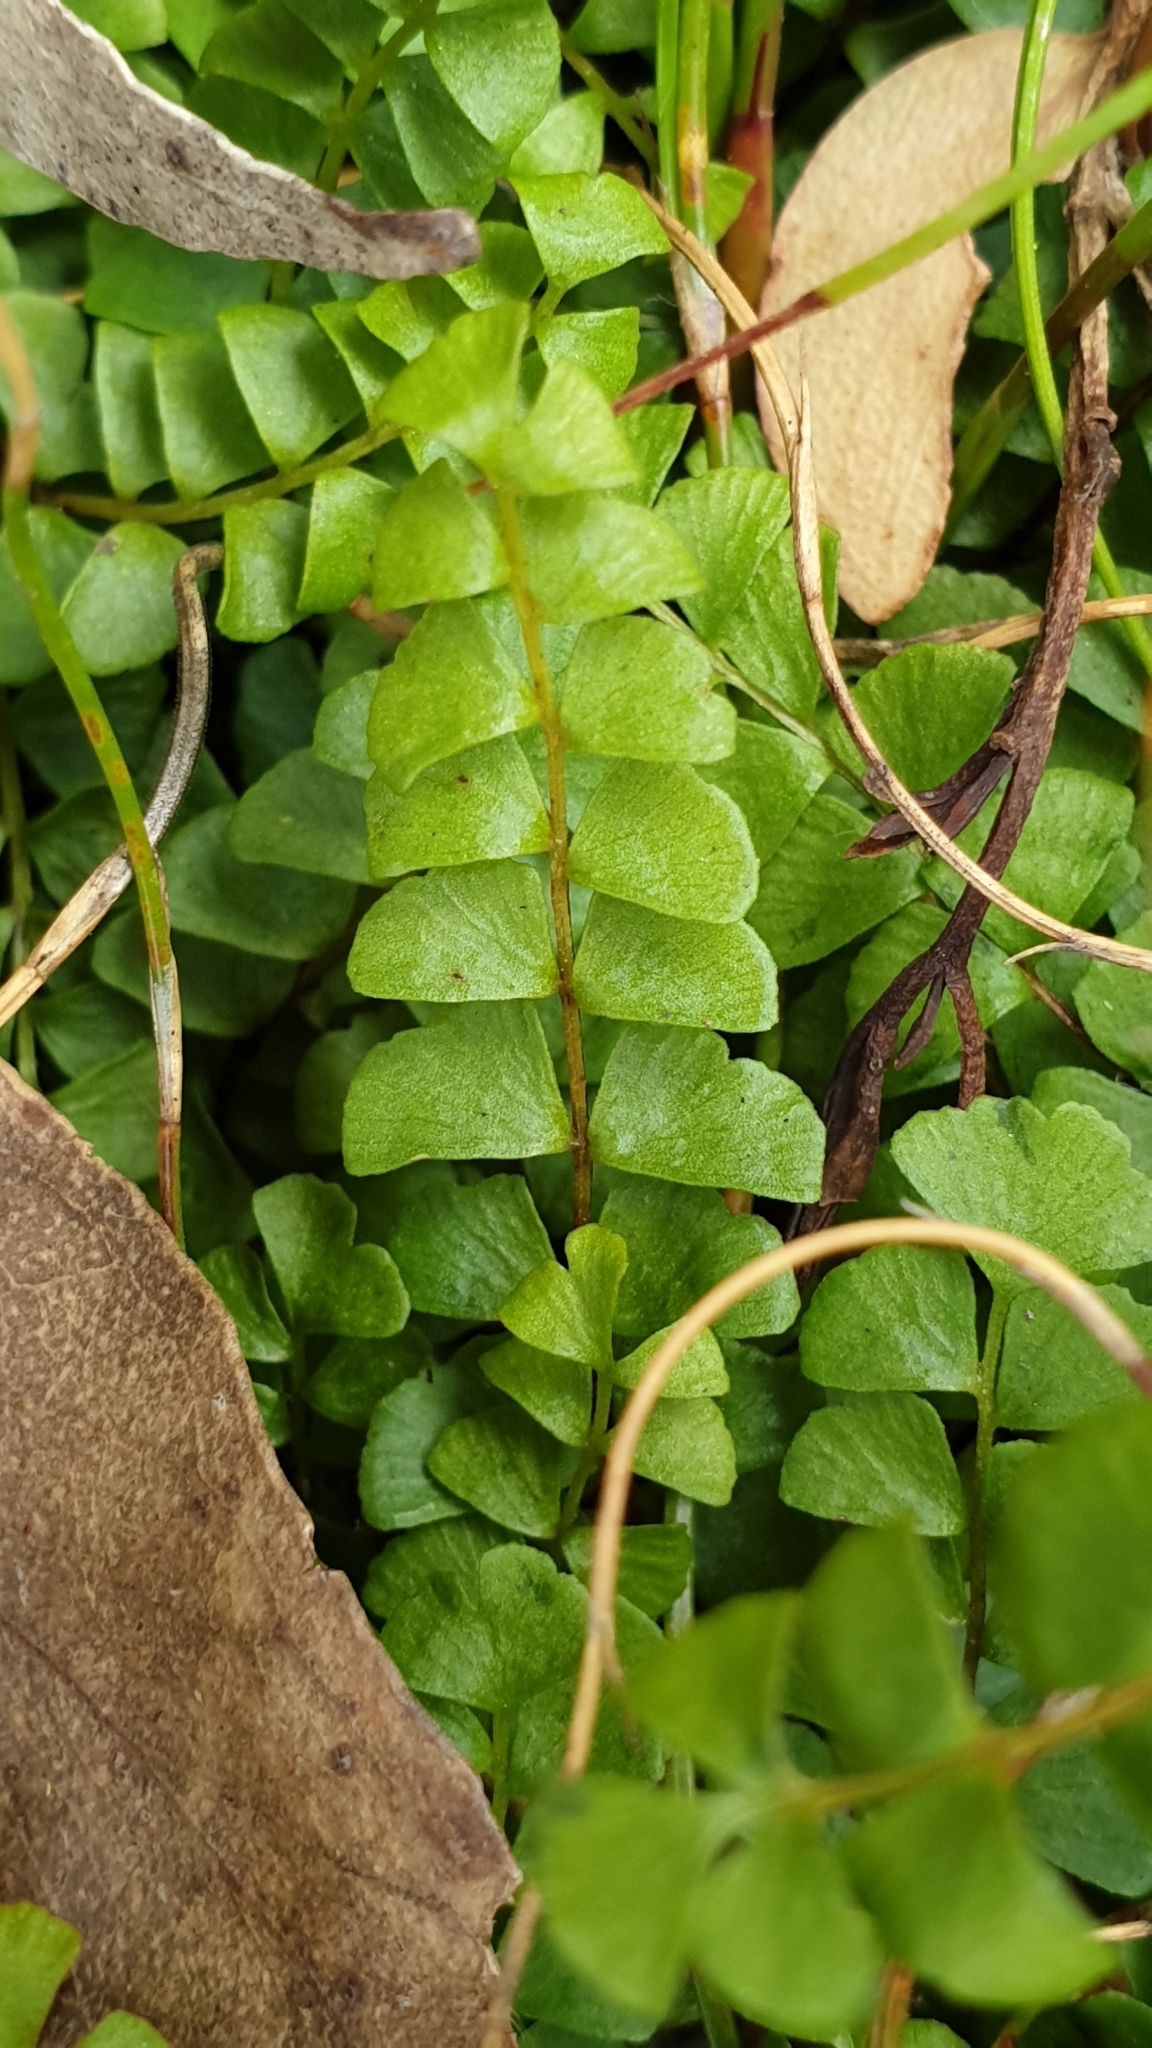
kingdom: Plantae
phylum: Tracheophyta
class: Polypodiopsida
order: Polypodiales
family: Lindsaeaceae
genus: Lindsaea
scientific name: Lindsaea linearis
